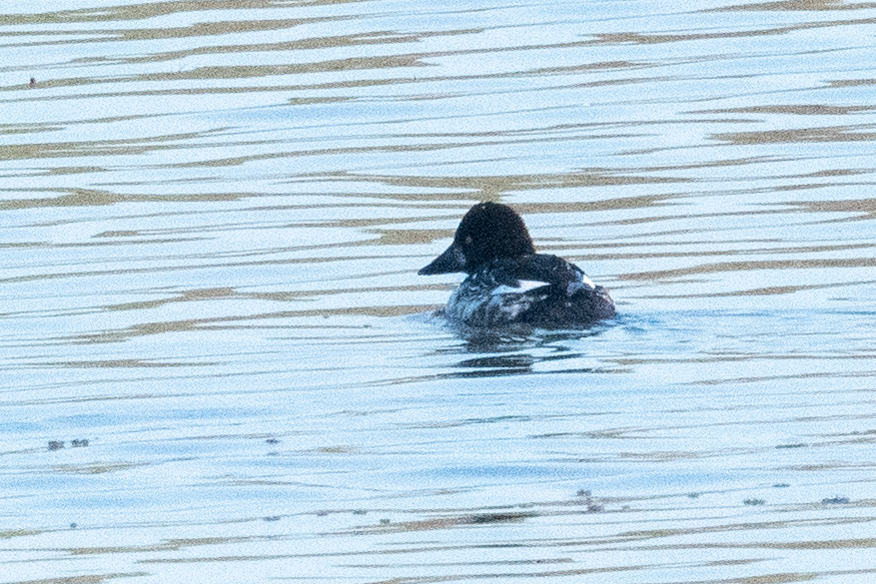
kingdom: Animalia
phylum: Chordata
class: Aves
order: Anseriformes
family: Anatidae
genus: Bucephala
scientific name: Bucephala clangula
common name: Common goldeneye
